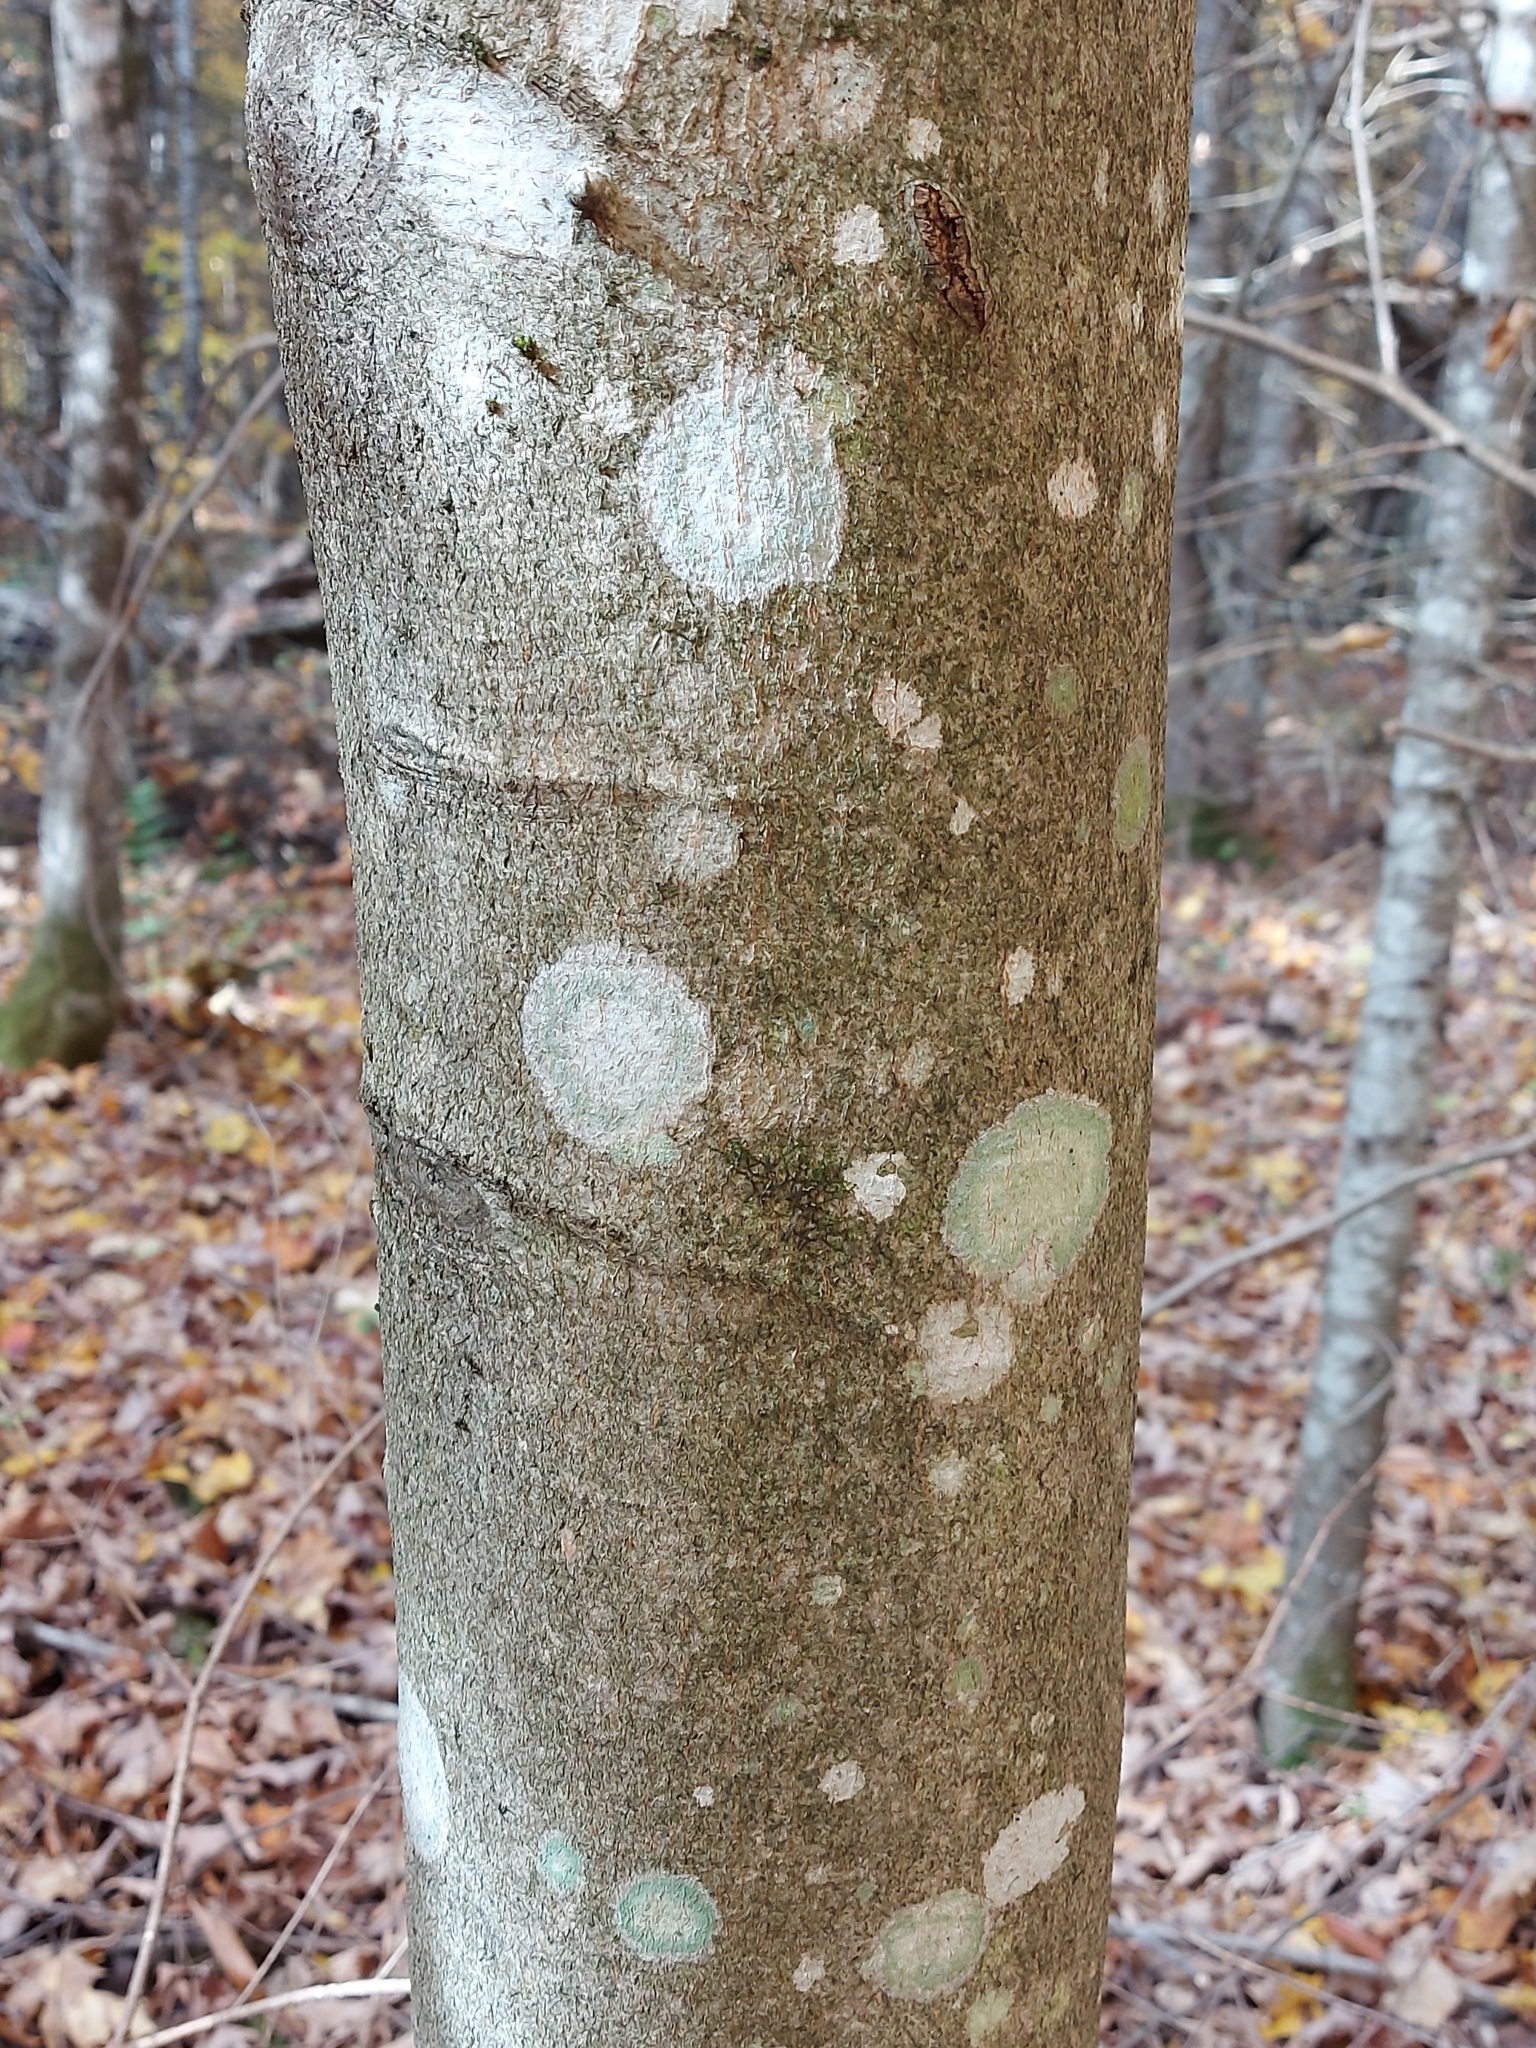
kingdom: Plantae
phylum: Tracheophyta
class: Magnoliopsida
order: Fagales
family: Fagaceae
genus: Fagus
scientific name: Fagus grandifolia
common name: American beech
